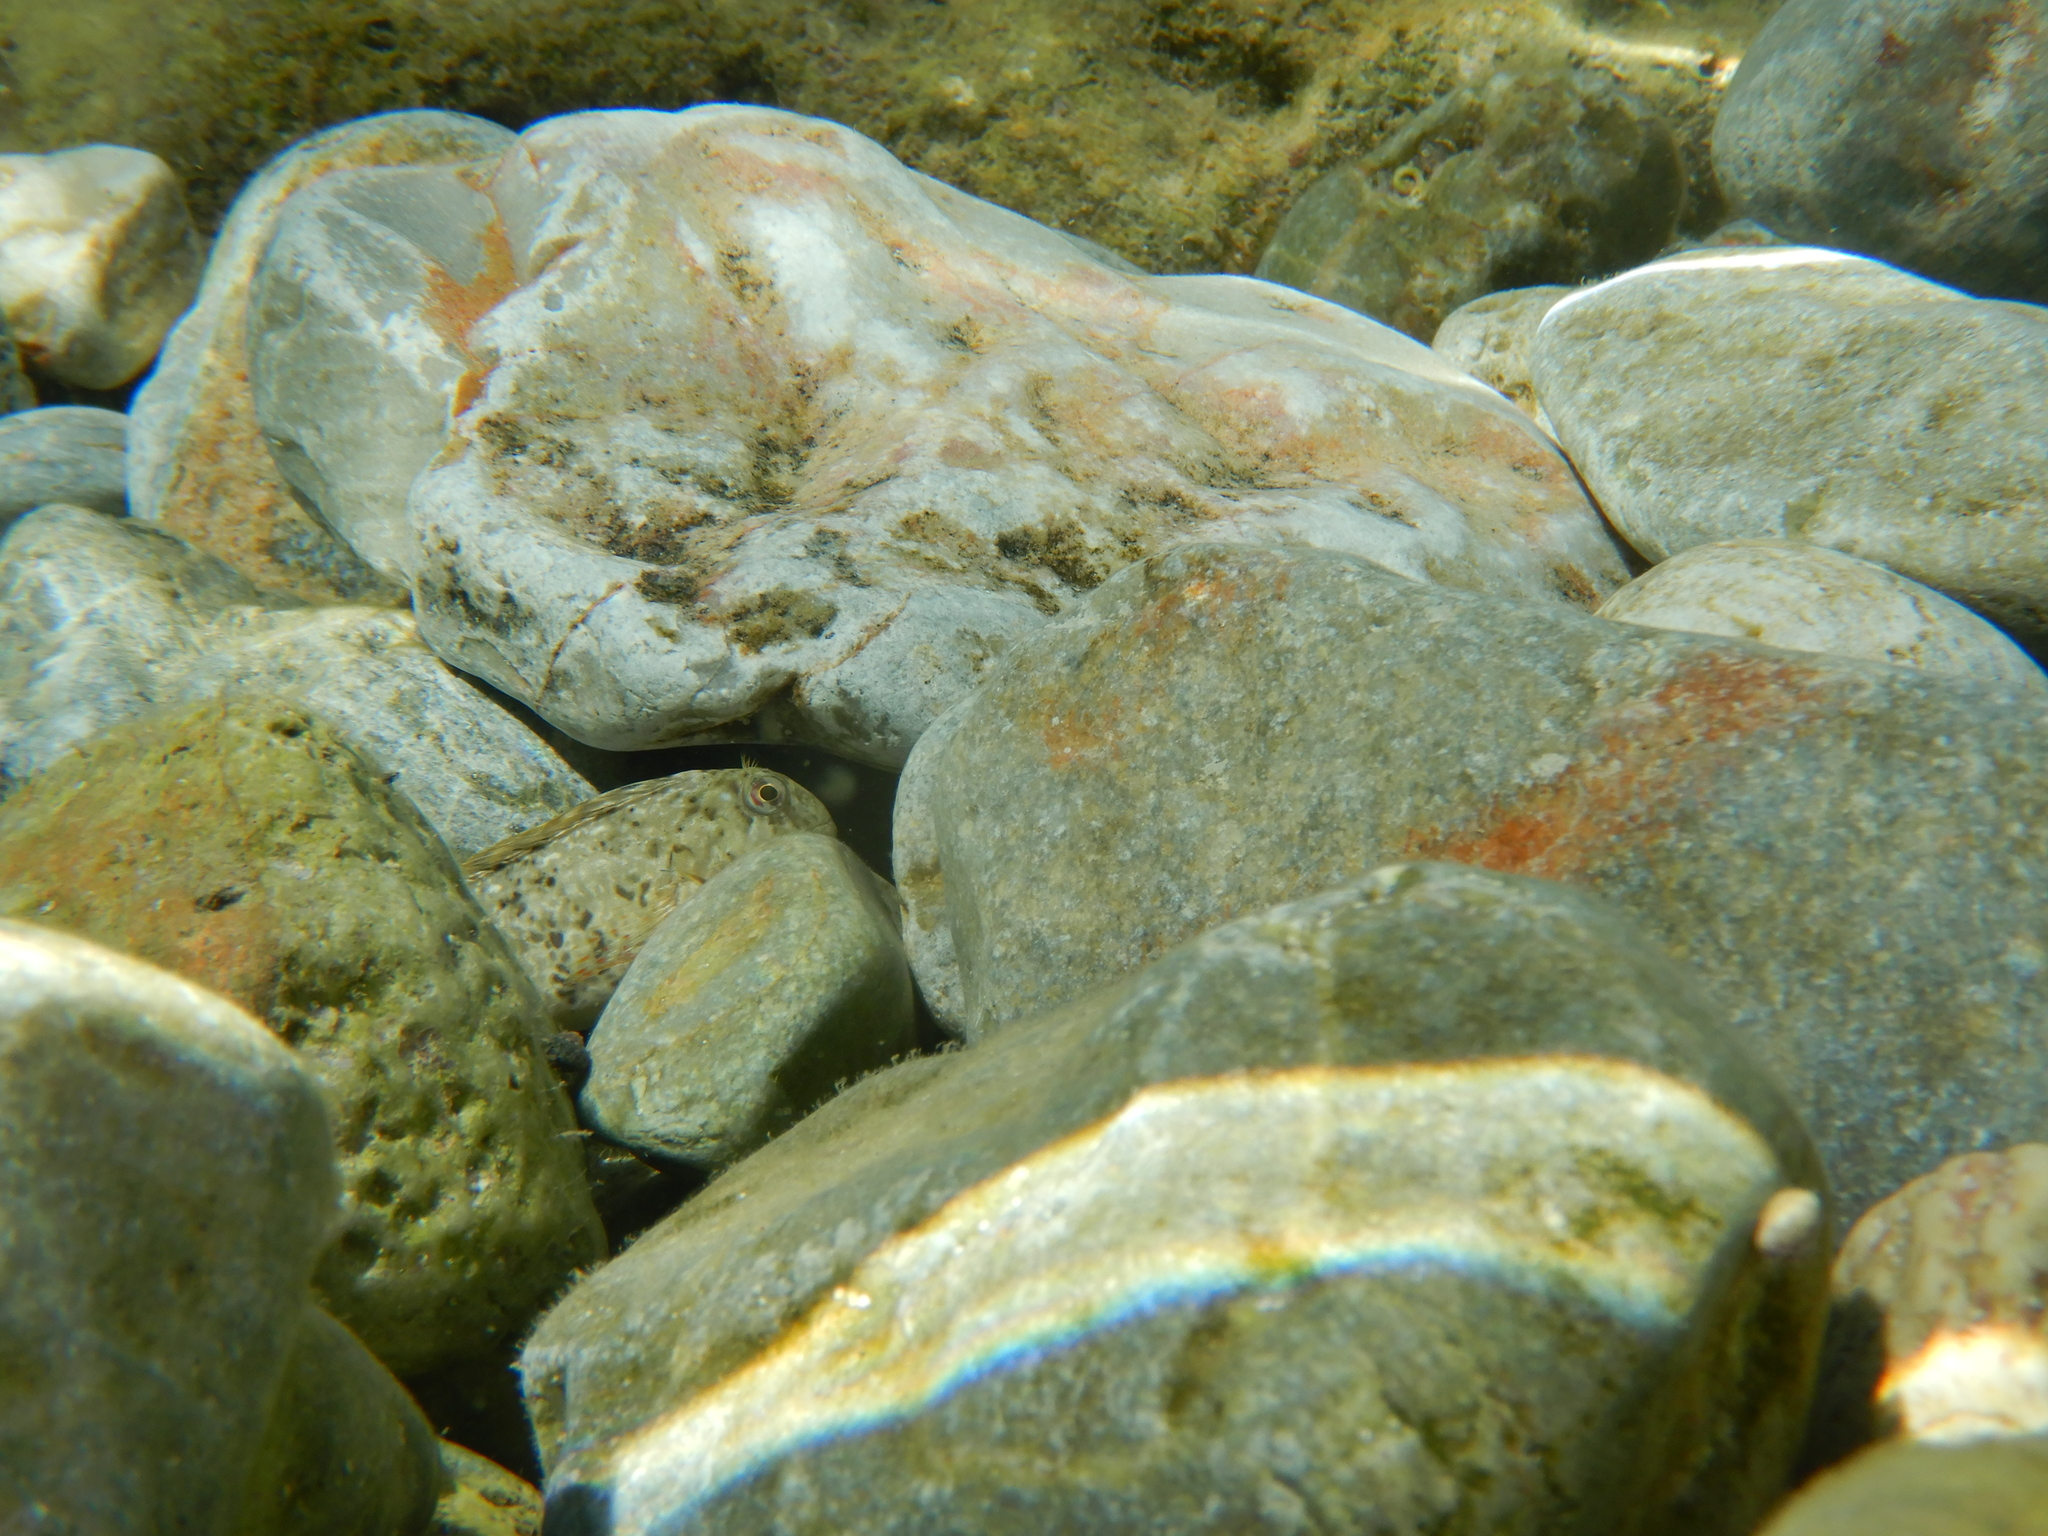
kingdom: Animalia
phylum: Chordata
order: Perciformes
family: Blenniidae
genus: Parablennius
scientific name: Parablennius sanguinolentus
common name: Black sea blenny
